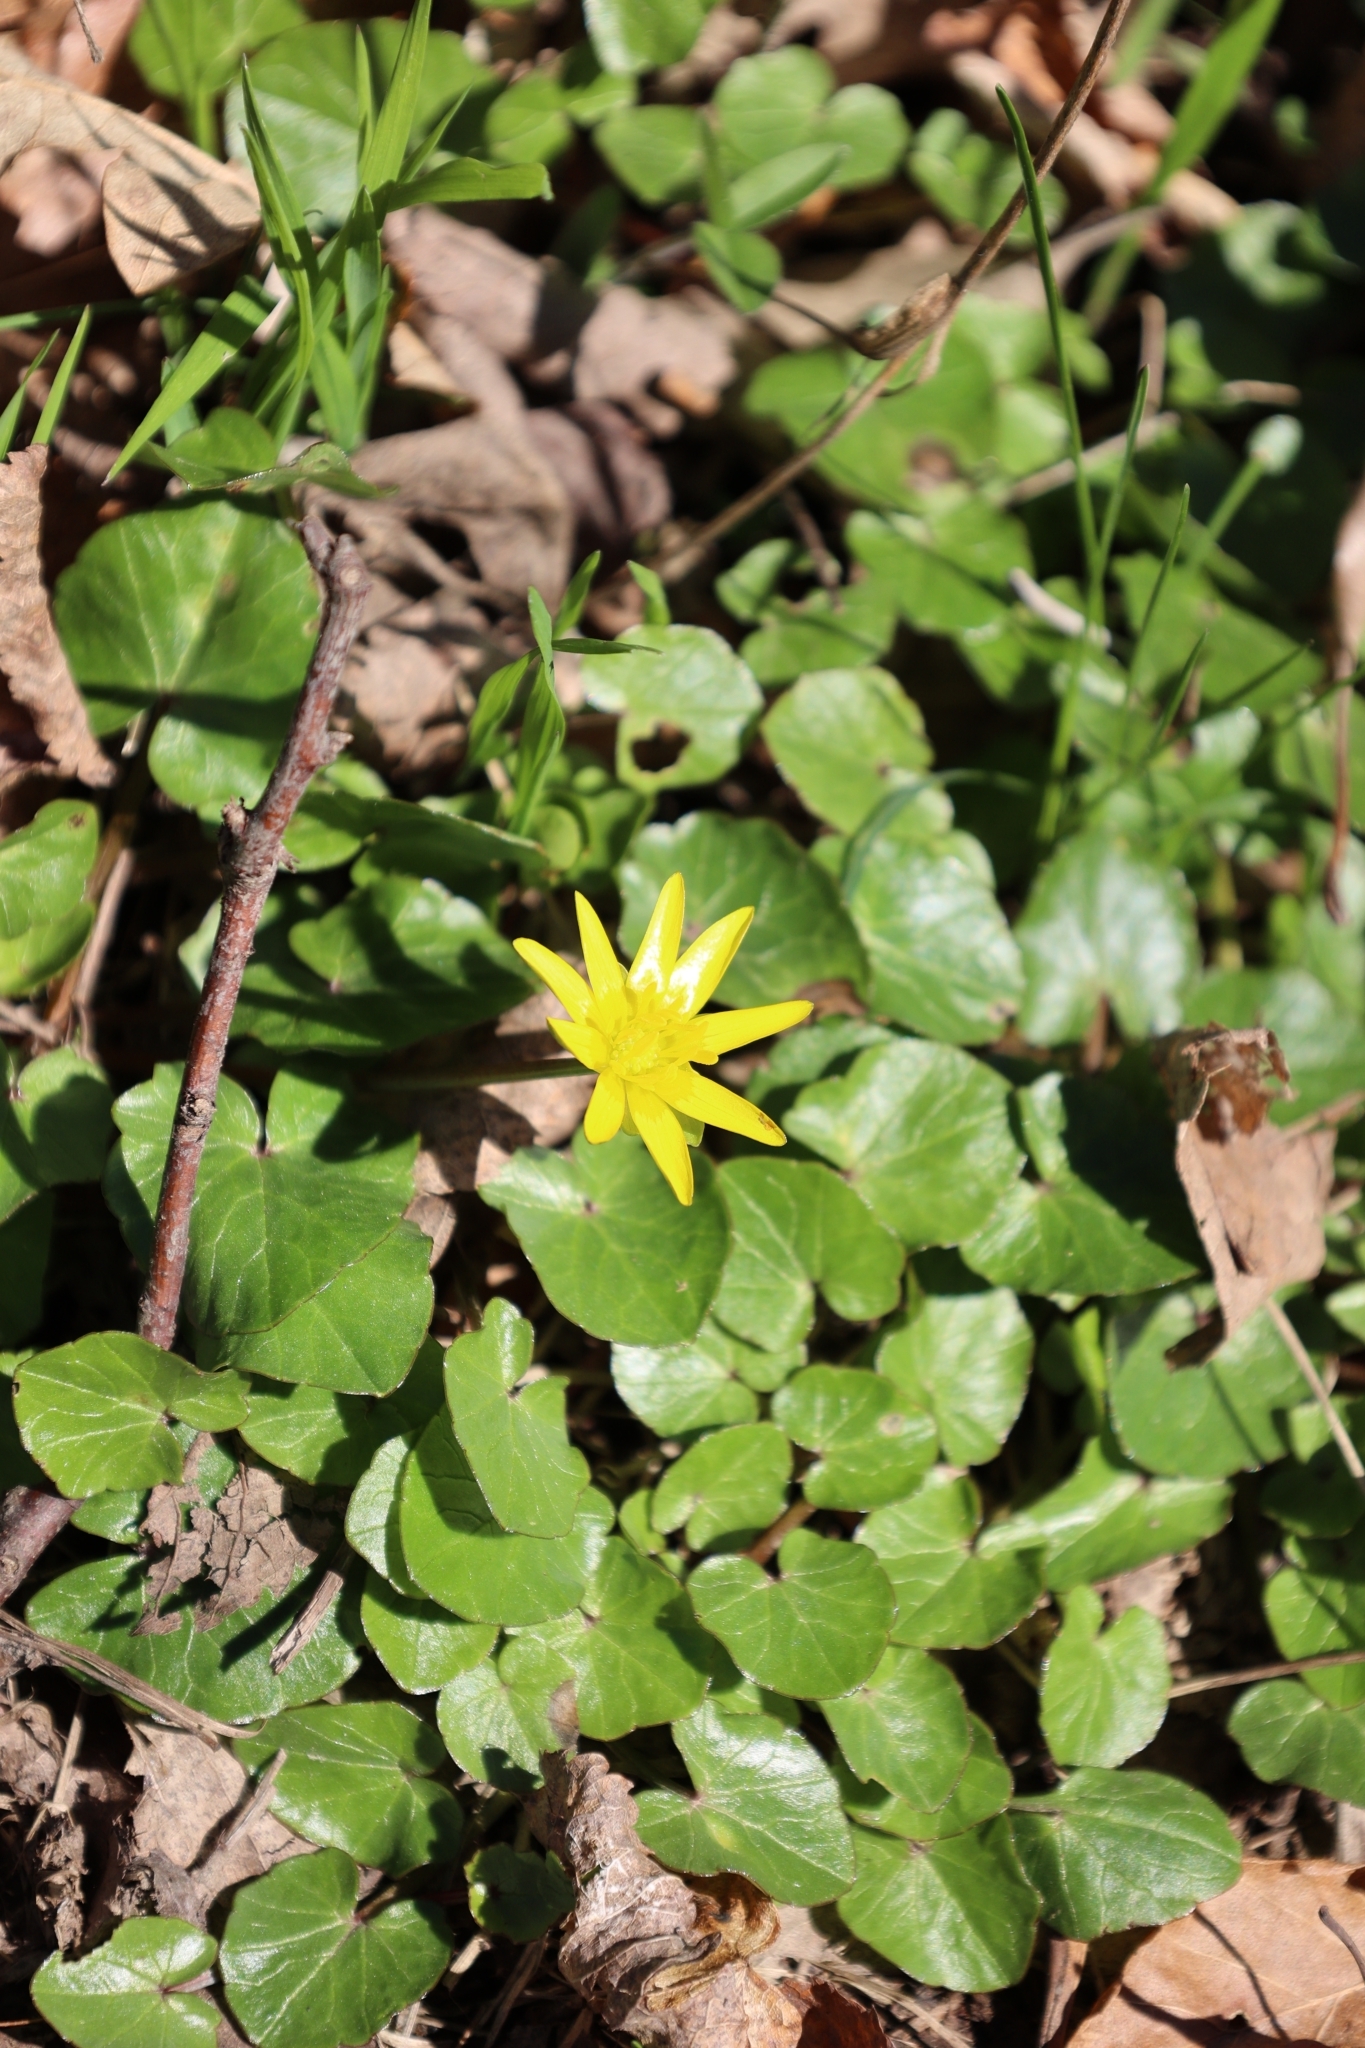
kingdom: Plantae
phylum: Tracheophyta
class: Magnoliopsida
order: Ranunculales
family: Ranunculaceae
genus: Ficaria
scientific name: Ficaria verna
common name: Lesser celandine
